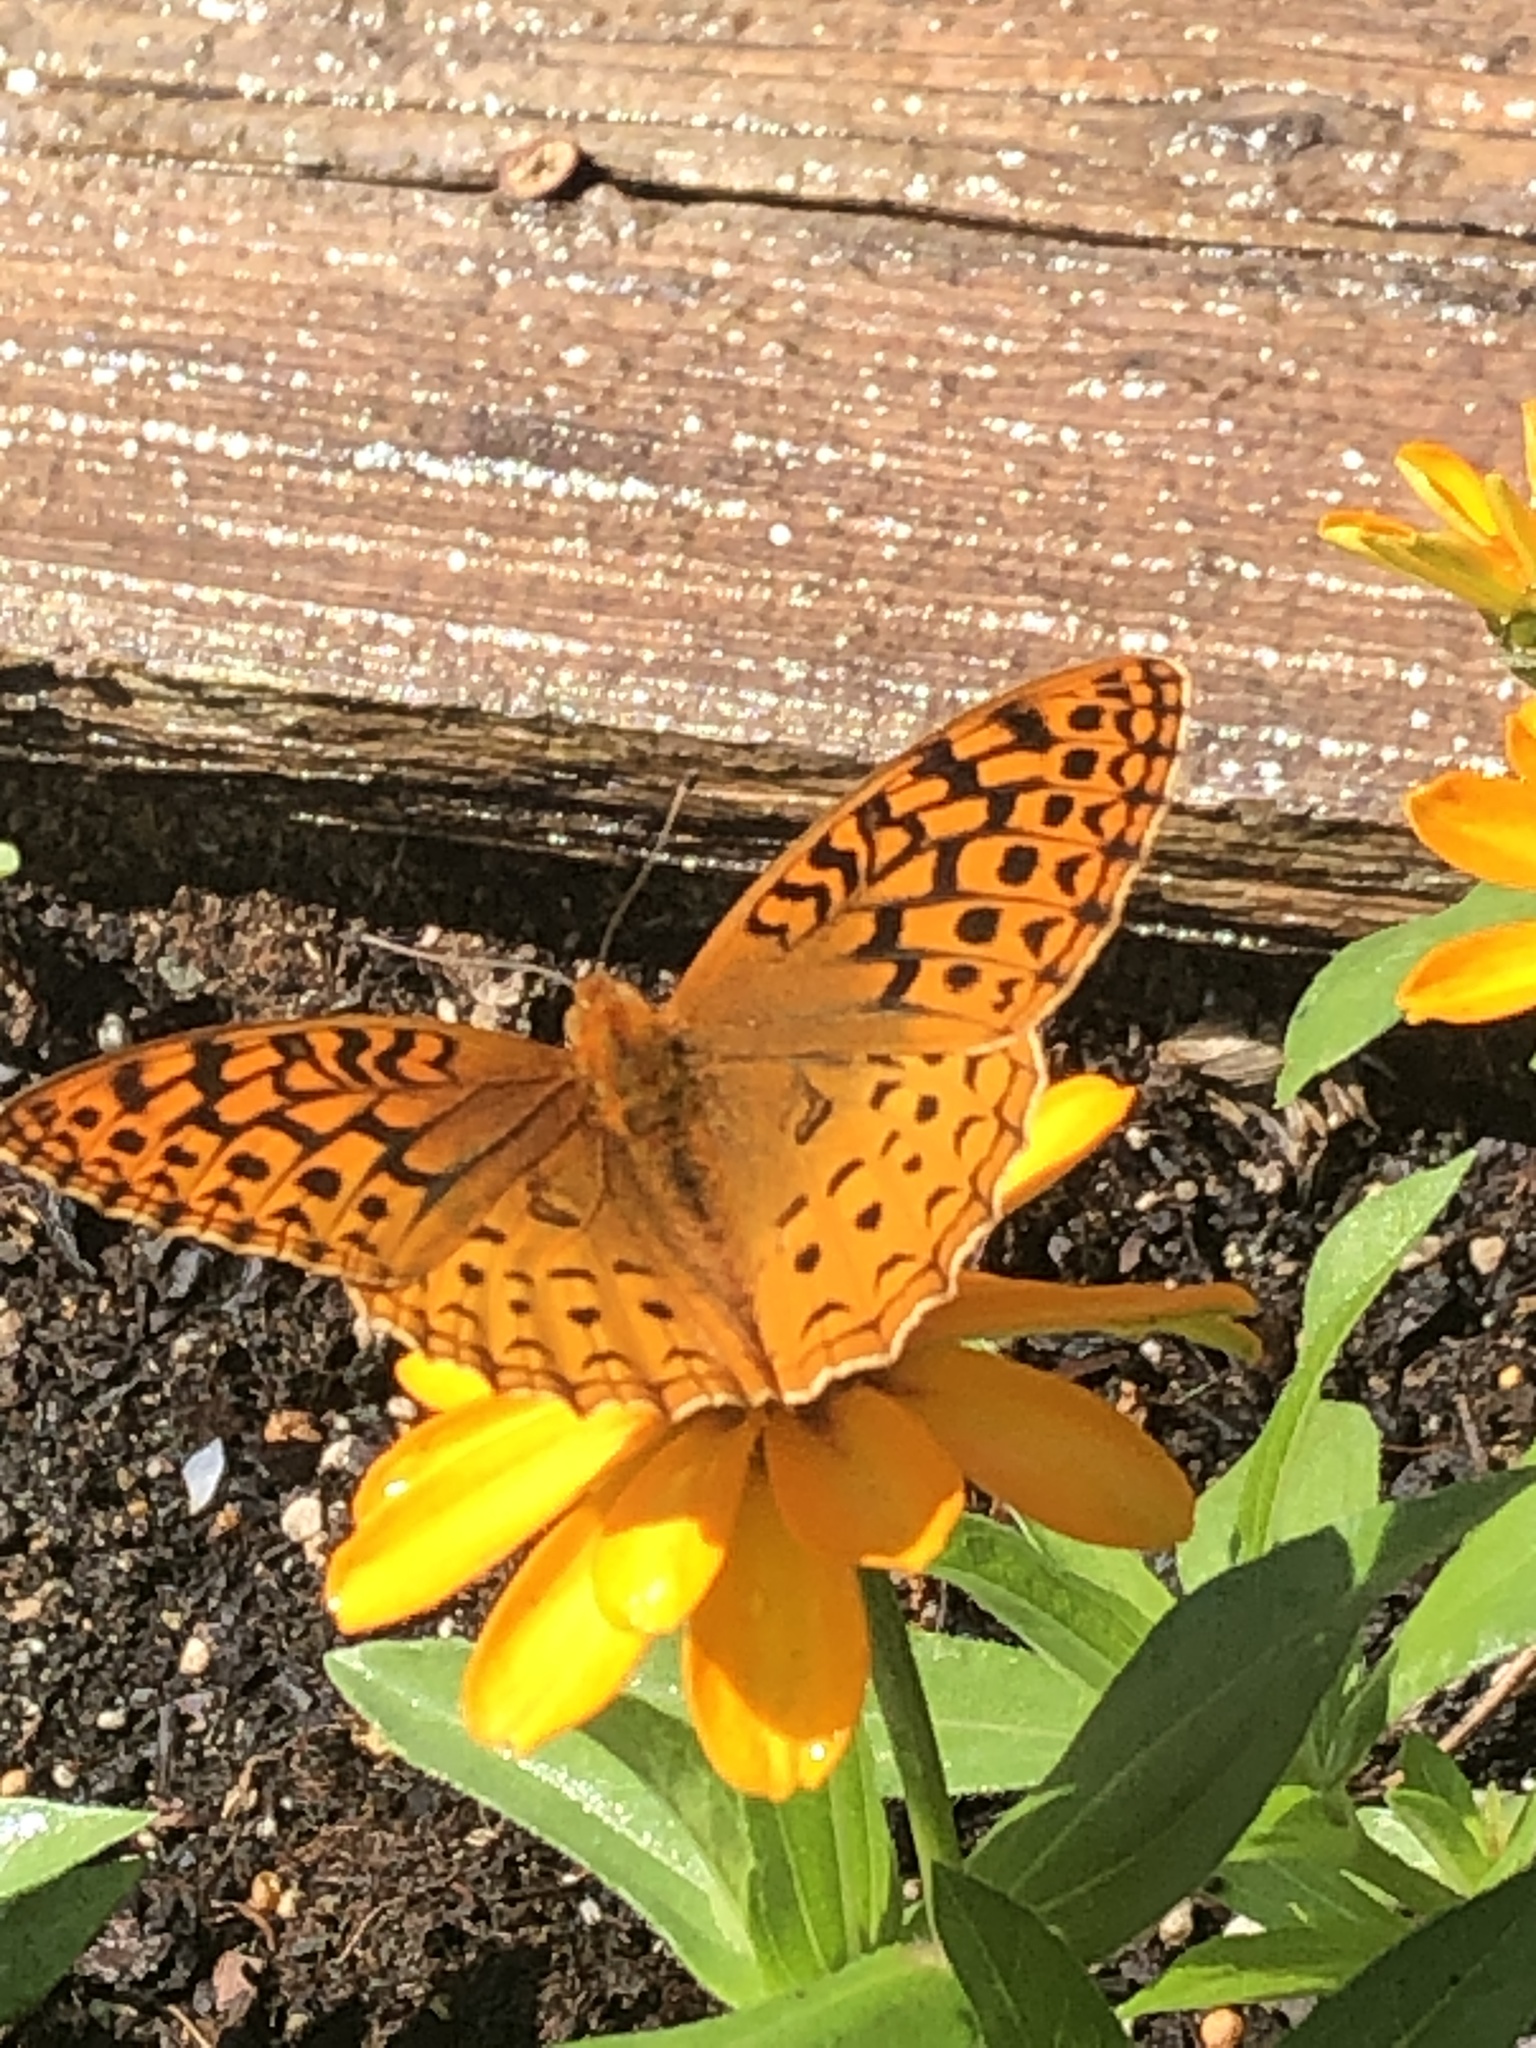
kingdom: Animalia
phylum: Arthropoda
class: Insecta
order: Lepidoptera
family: Nymphalidae
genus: Speyeria
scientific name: Speyeria cybele
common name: Great spangled fritillary
